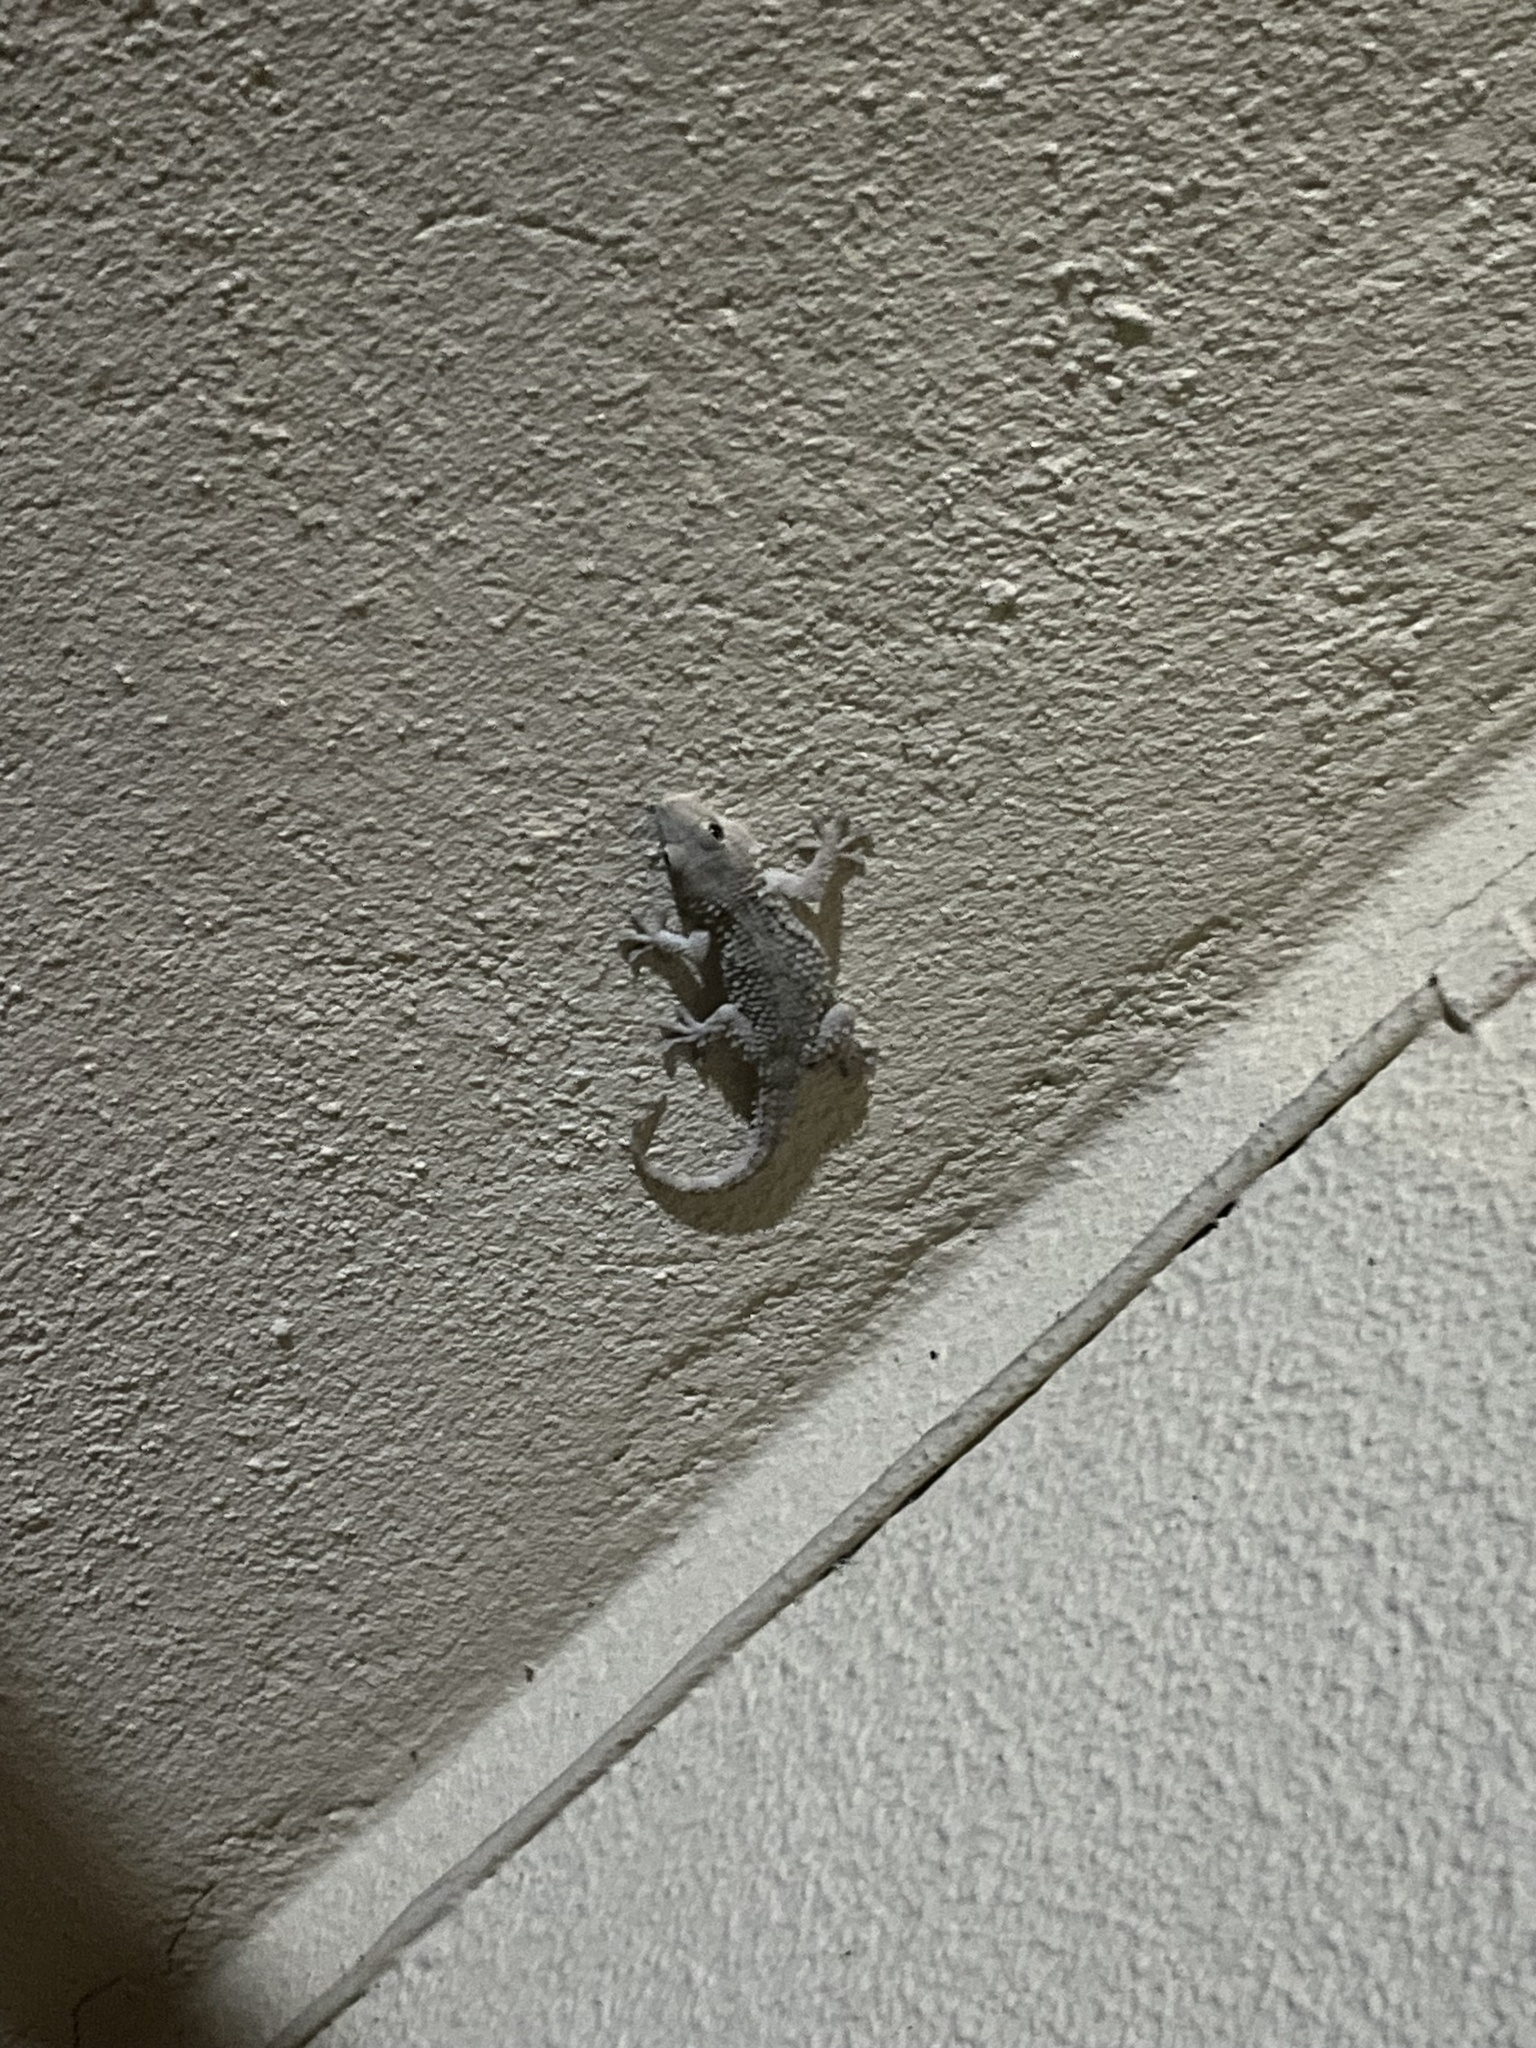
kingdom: Animalia
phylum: Chordata
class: Squamata
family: Phyllodactylidae
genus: Tarentola
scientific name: Tarentola mauritanica
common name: Moorish gecko
